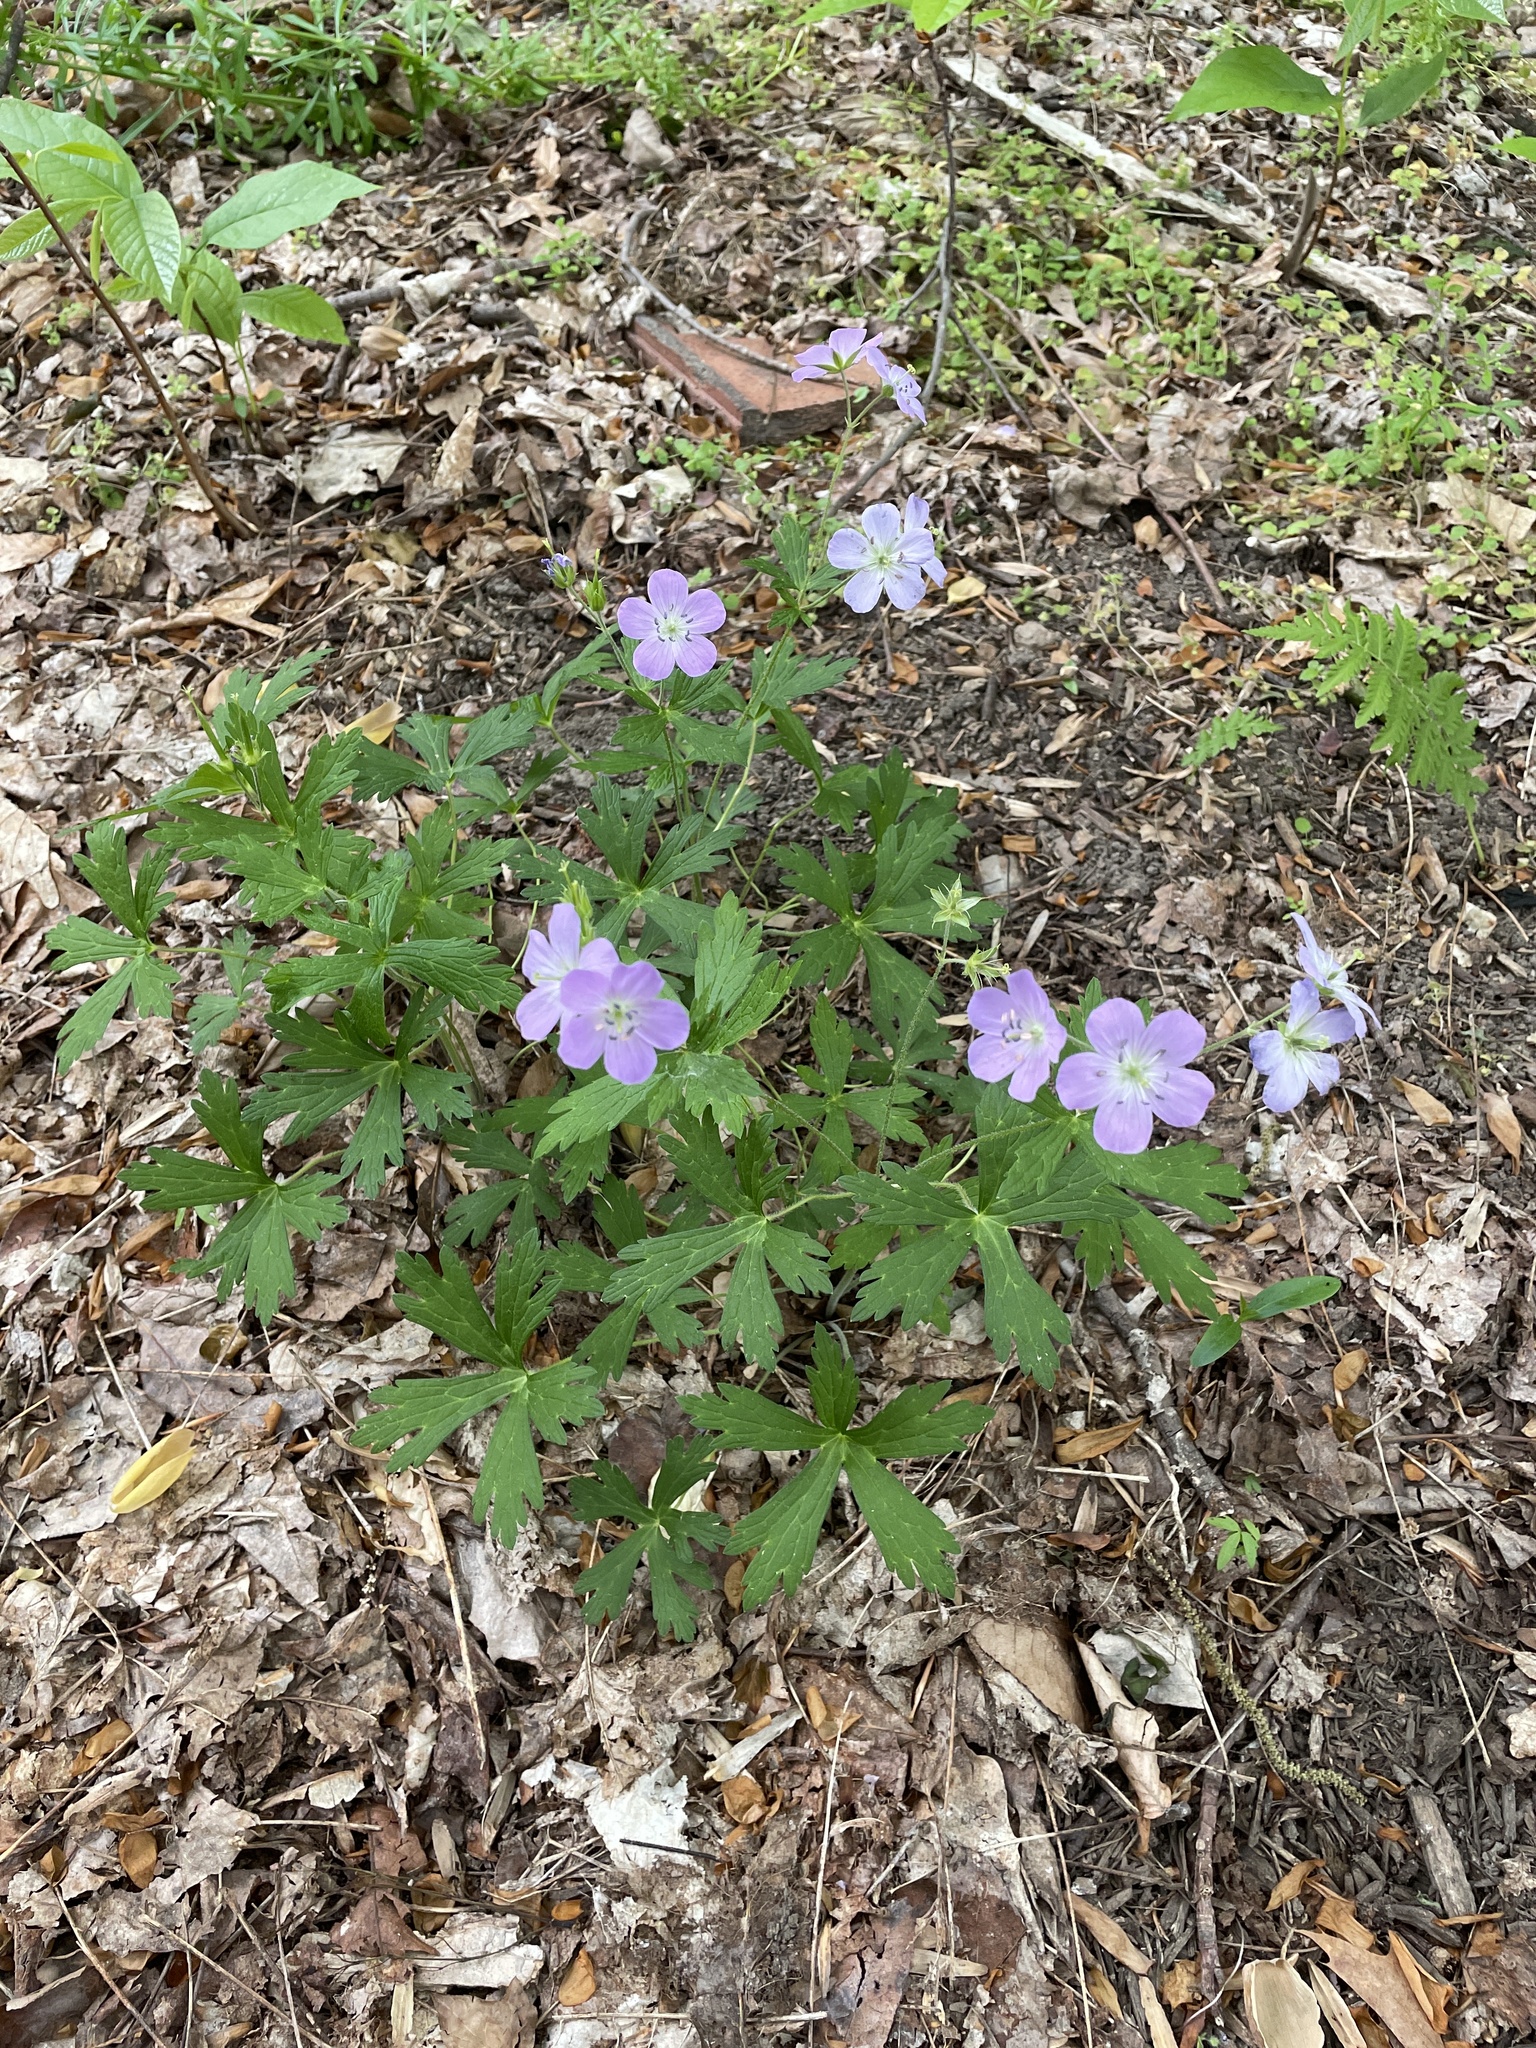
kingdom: Plantae
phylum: Tracheophyta
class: Magnoliopsida
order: Geraniales
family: Geraniaceae
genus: Geranium
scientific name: Geranium maculatum
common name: Spotted geranium
